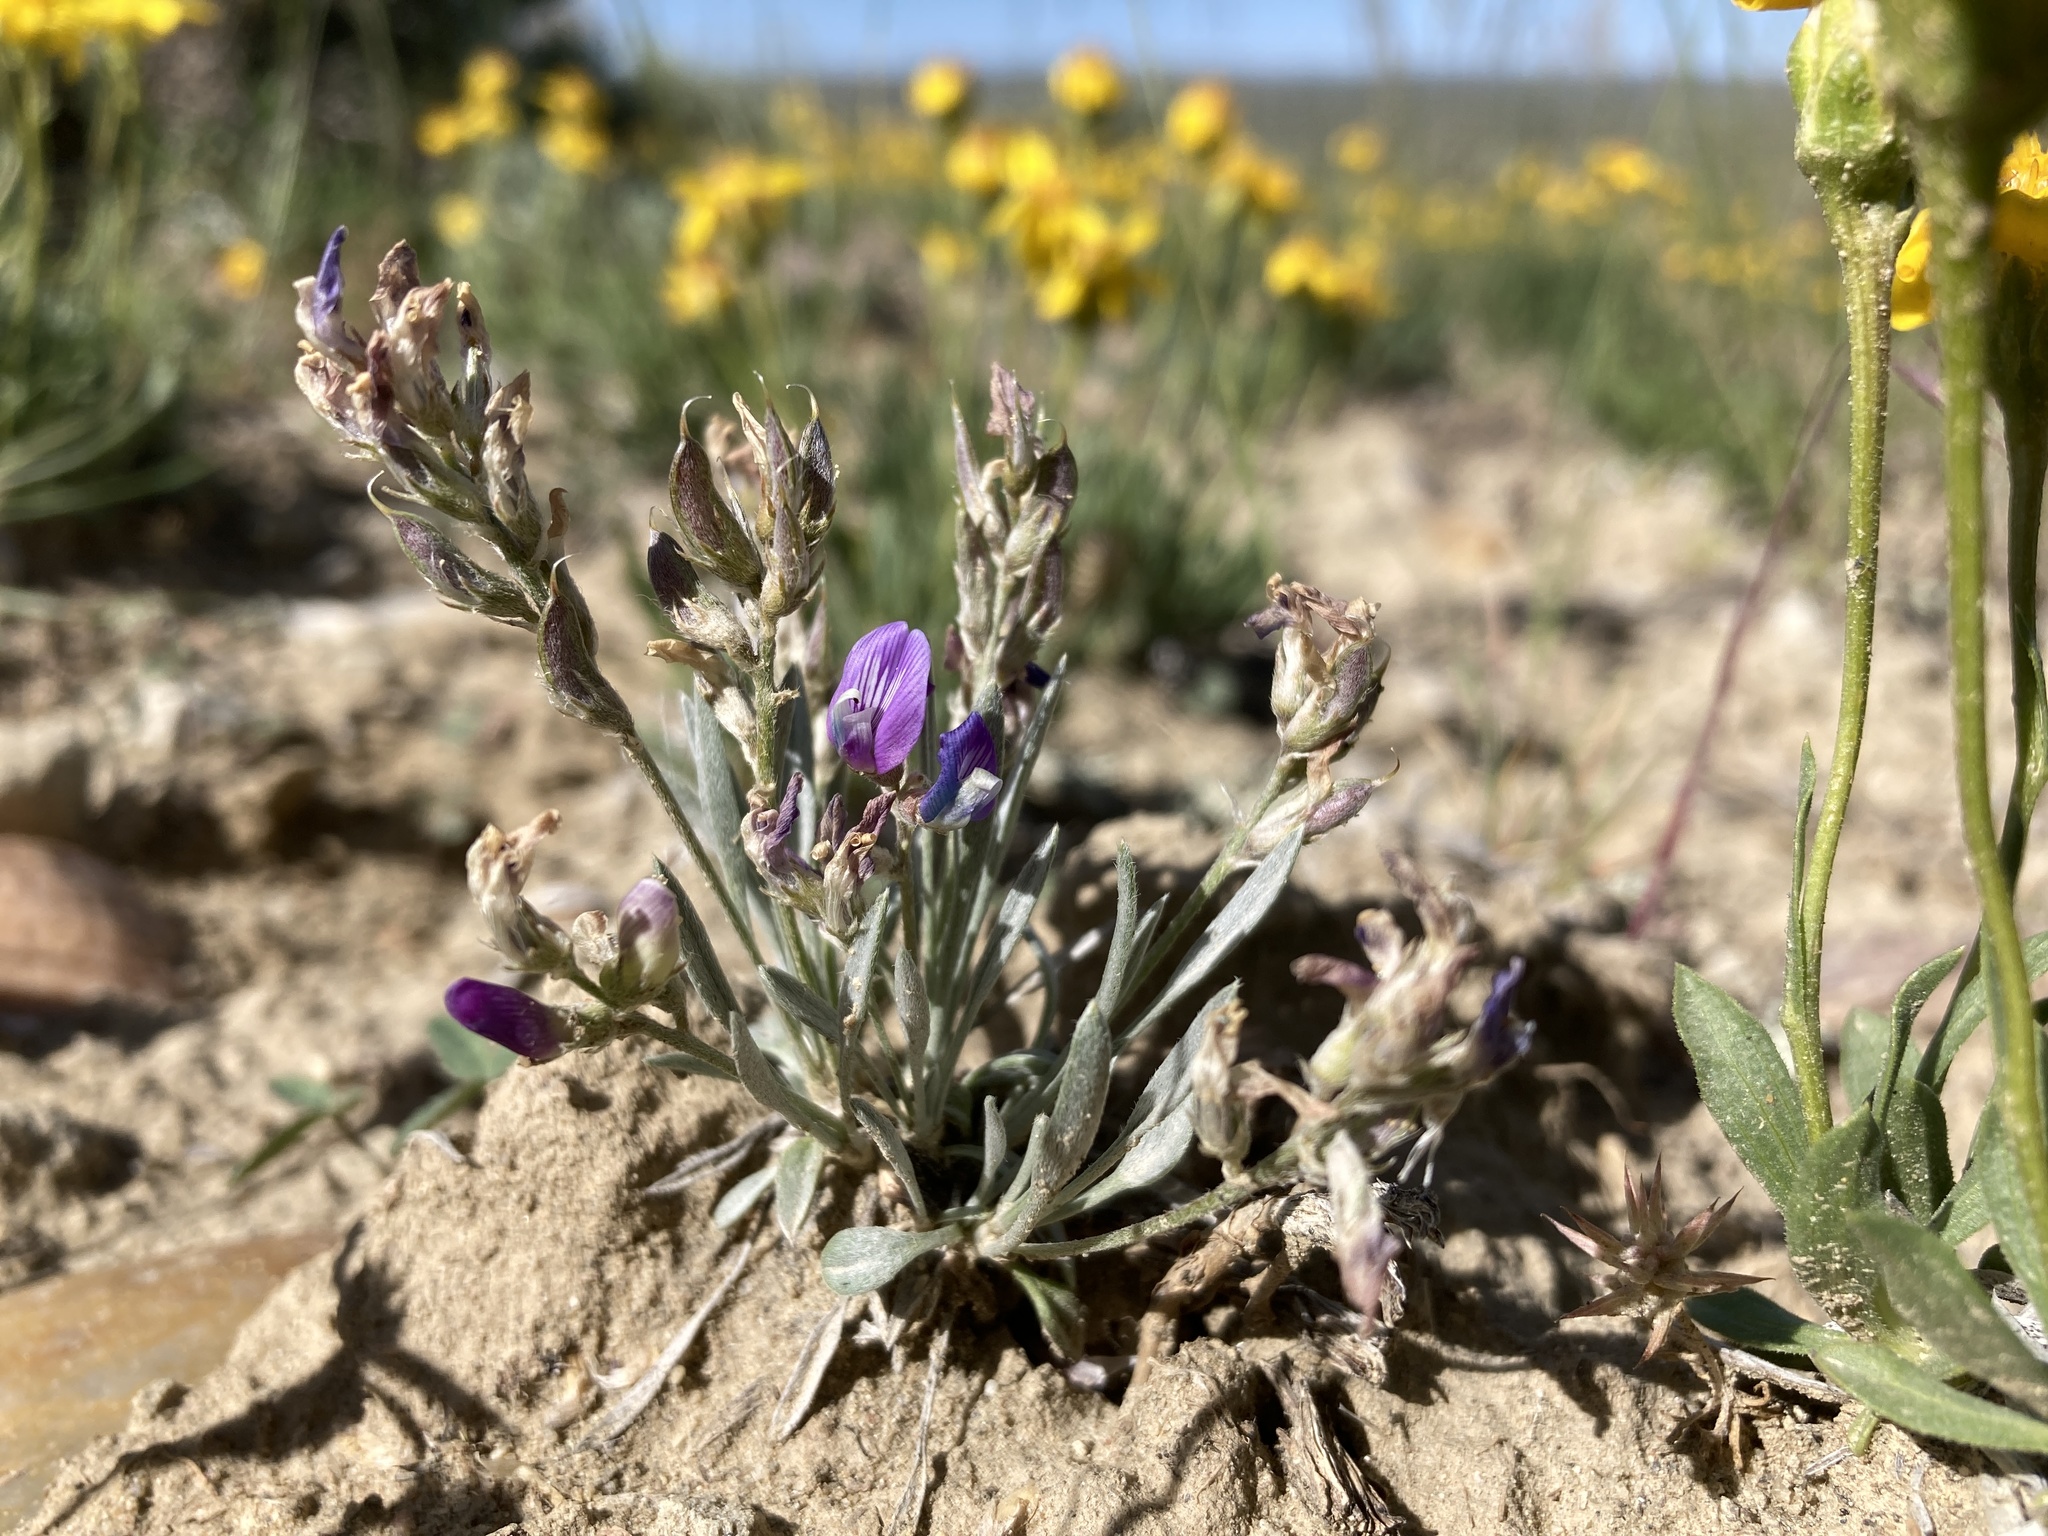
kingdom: Plantae
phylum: Tracheophyta
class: Magnoliopsida
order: Fabales
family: Fabaceae
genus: Astragalus
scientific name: Astragalus spatulatus
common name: Draba milk-vetch
